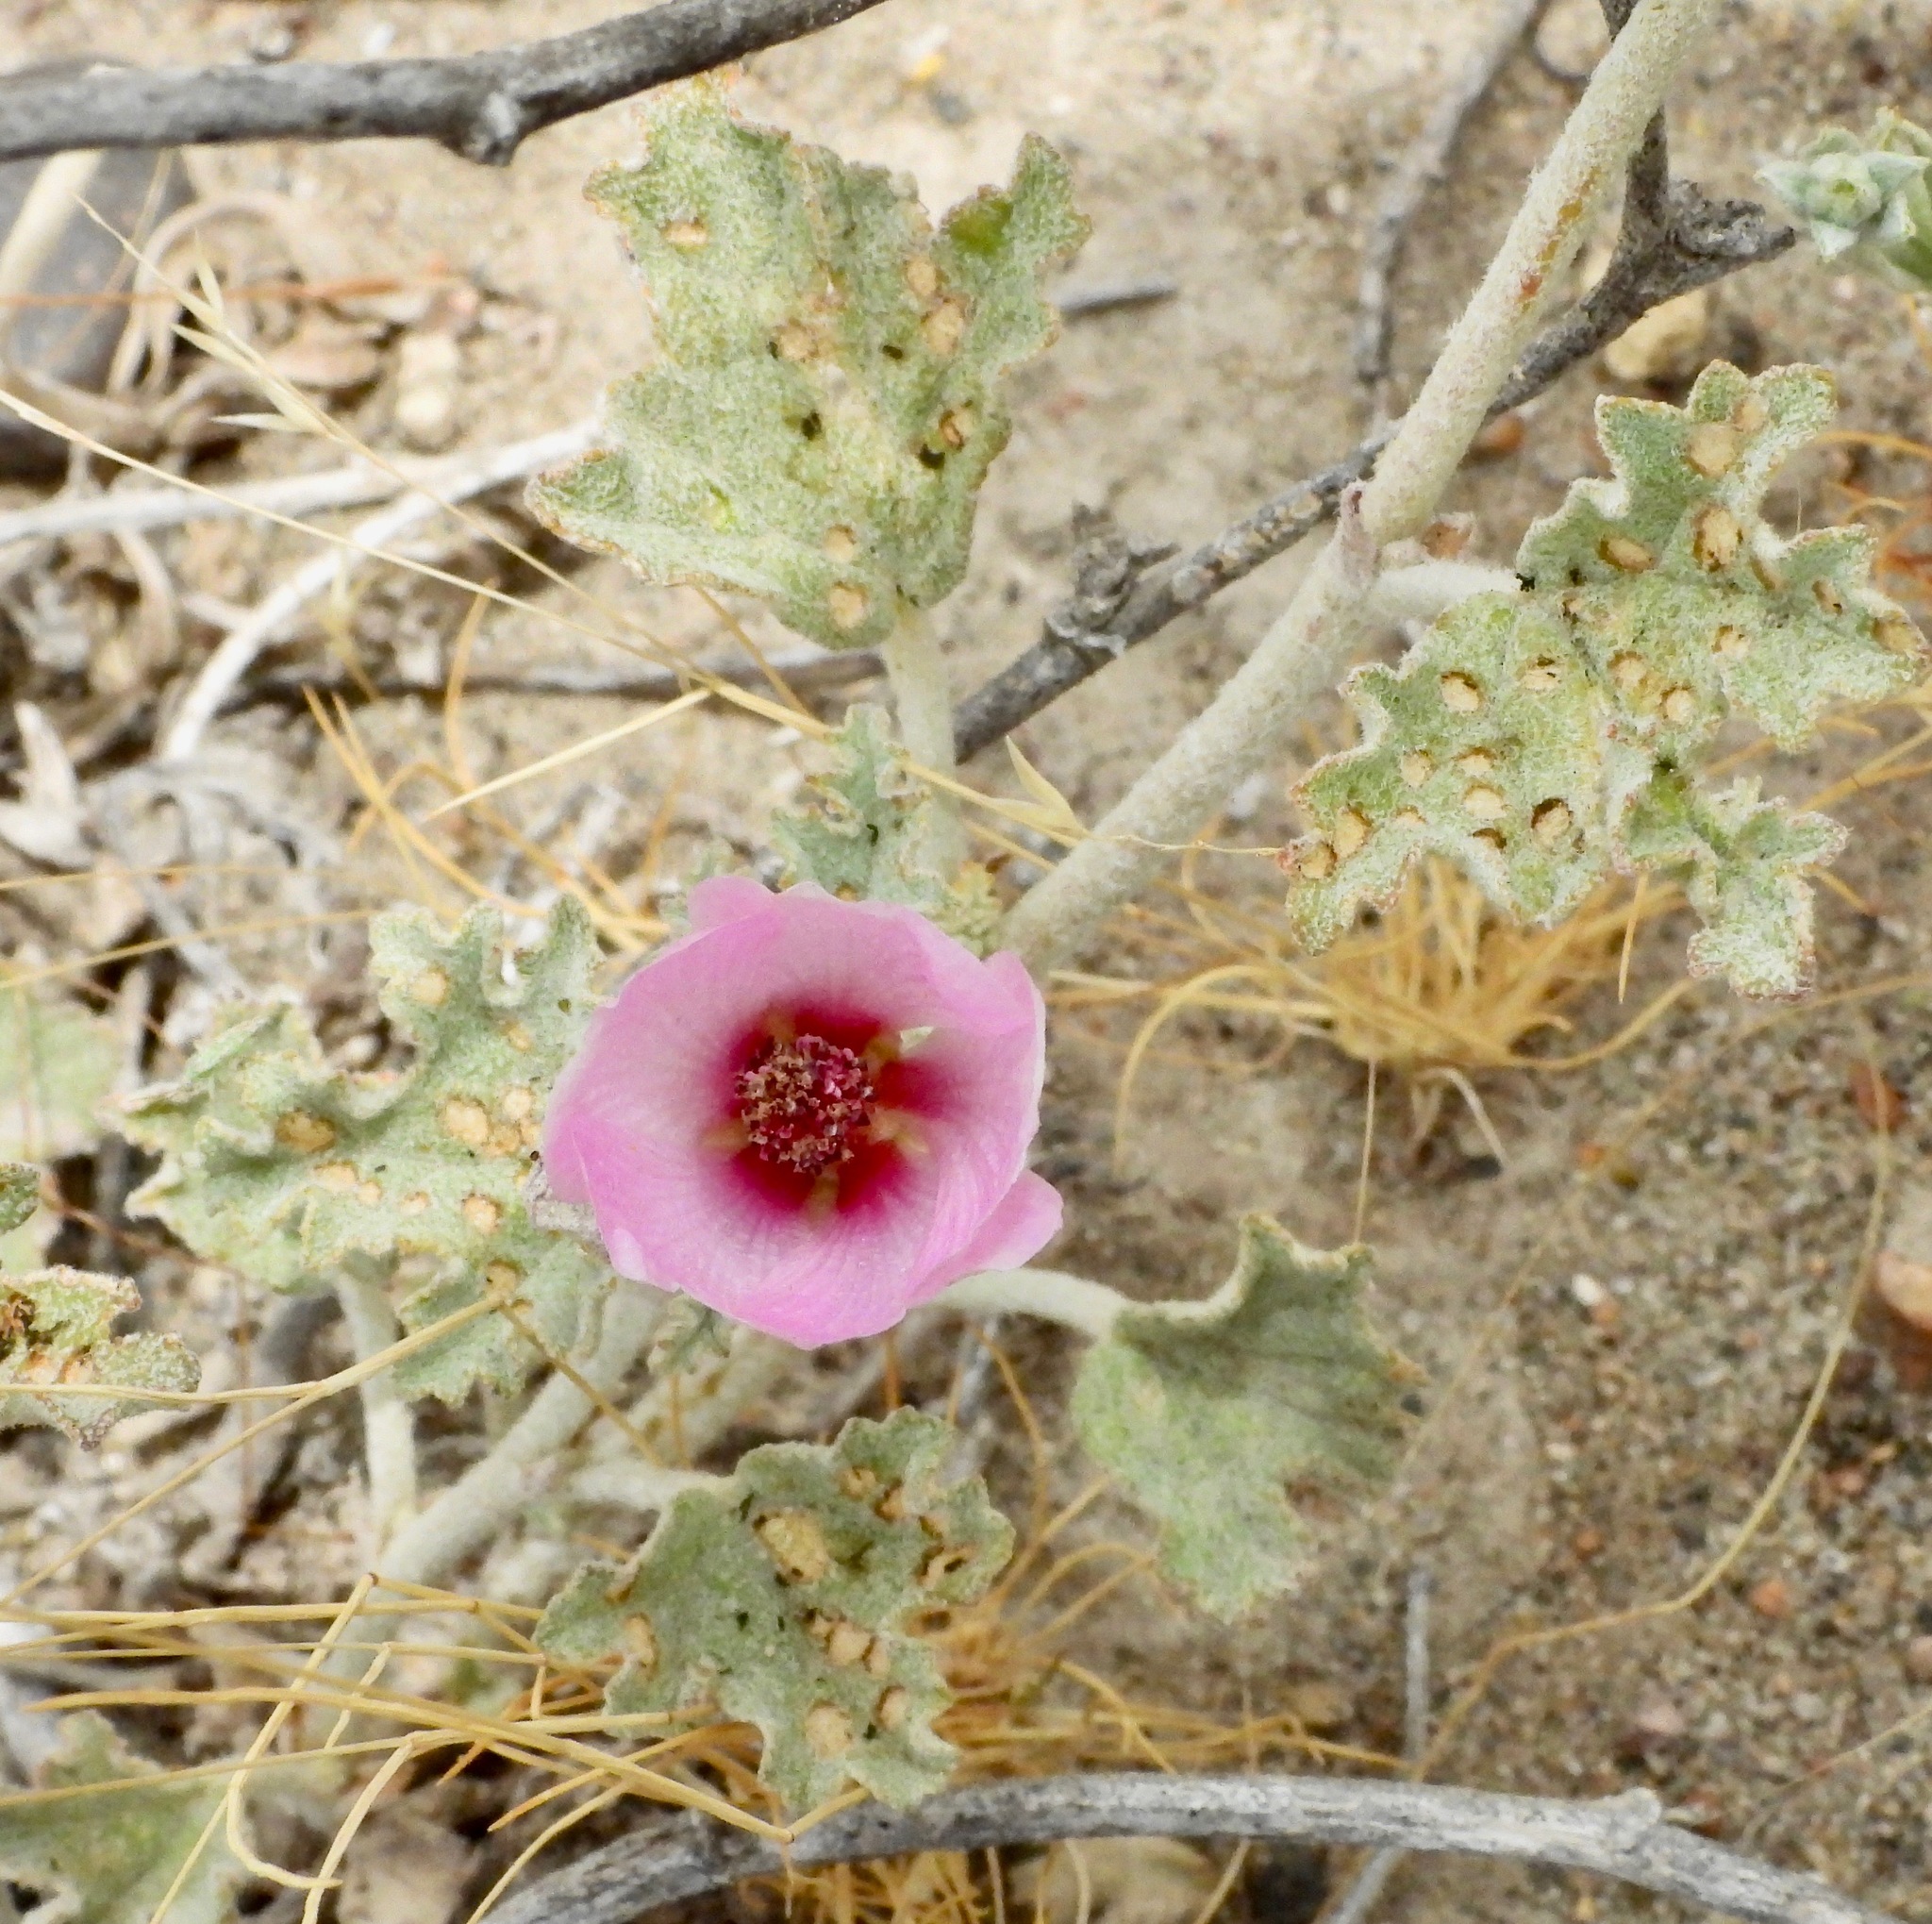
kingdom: Plantae
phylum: Tracheophyta
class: Magnoliopsida
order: Malvales
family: Malvaceae
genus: Sphaeralcea
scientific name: Sphaeralcea mendocina
